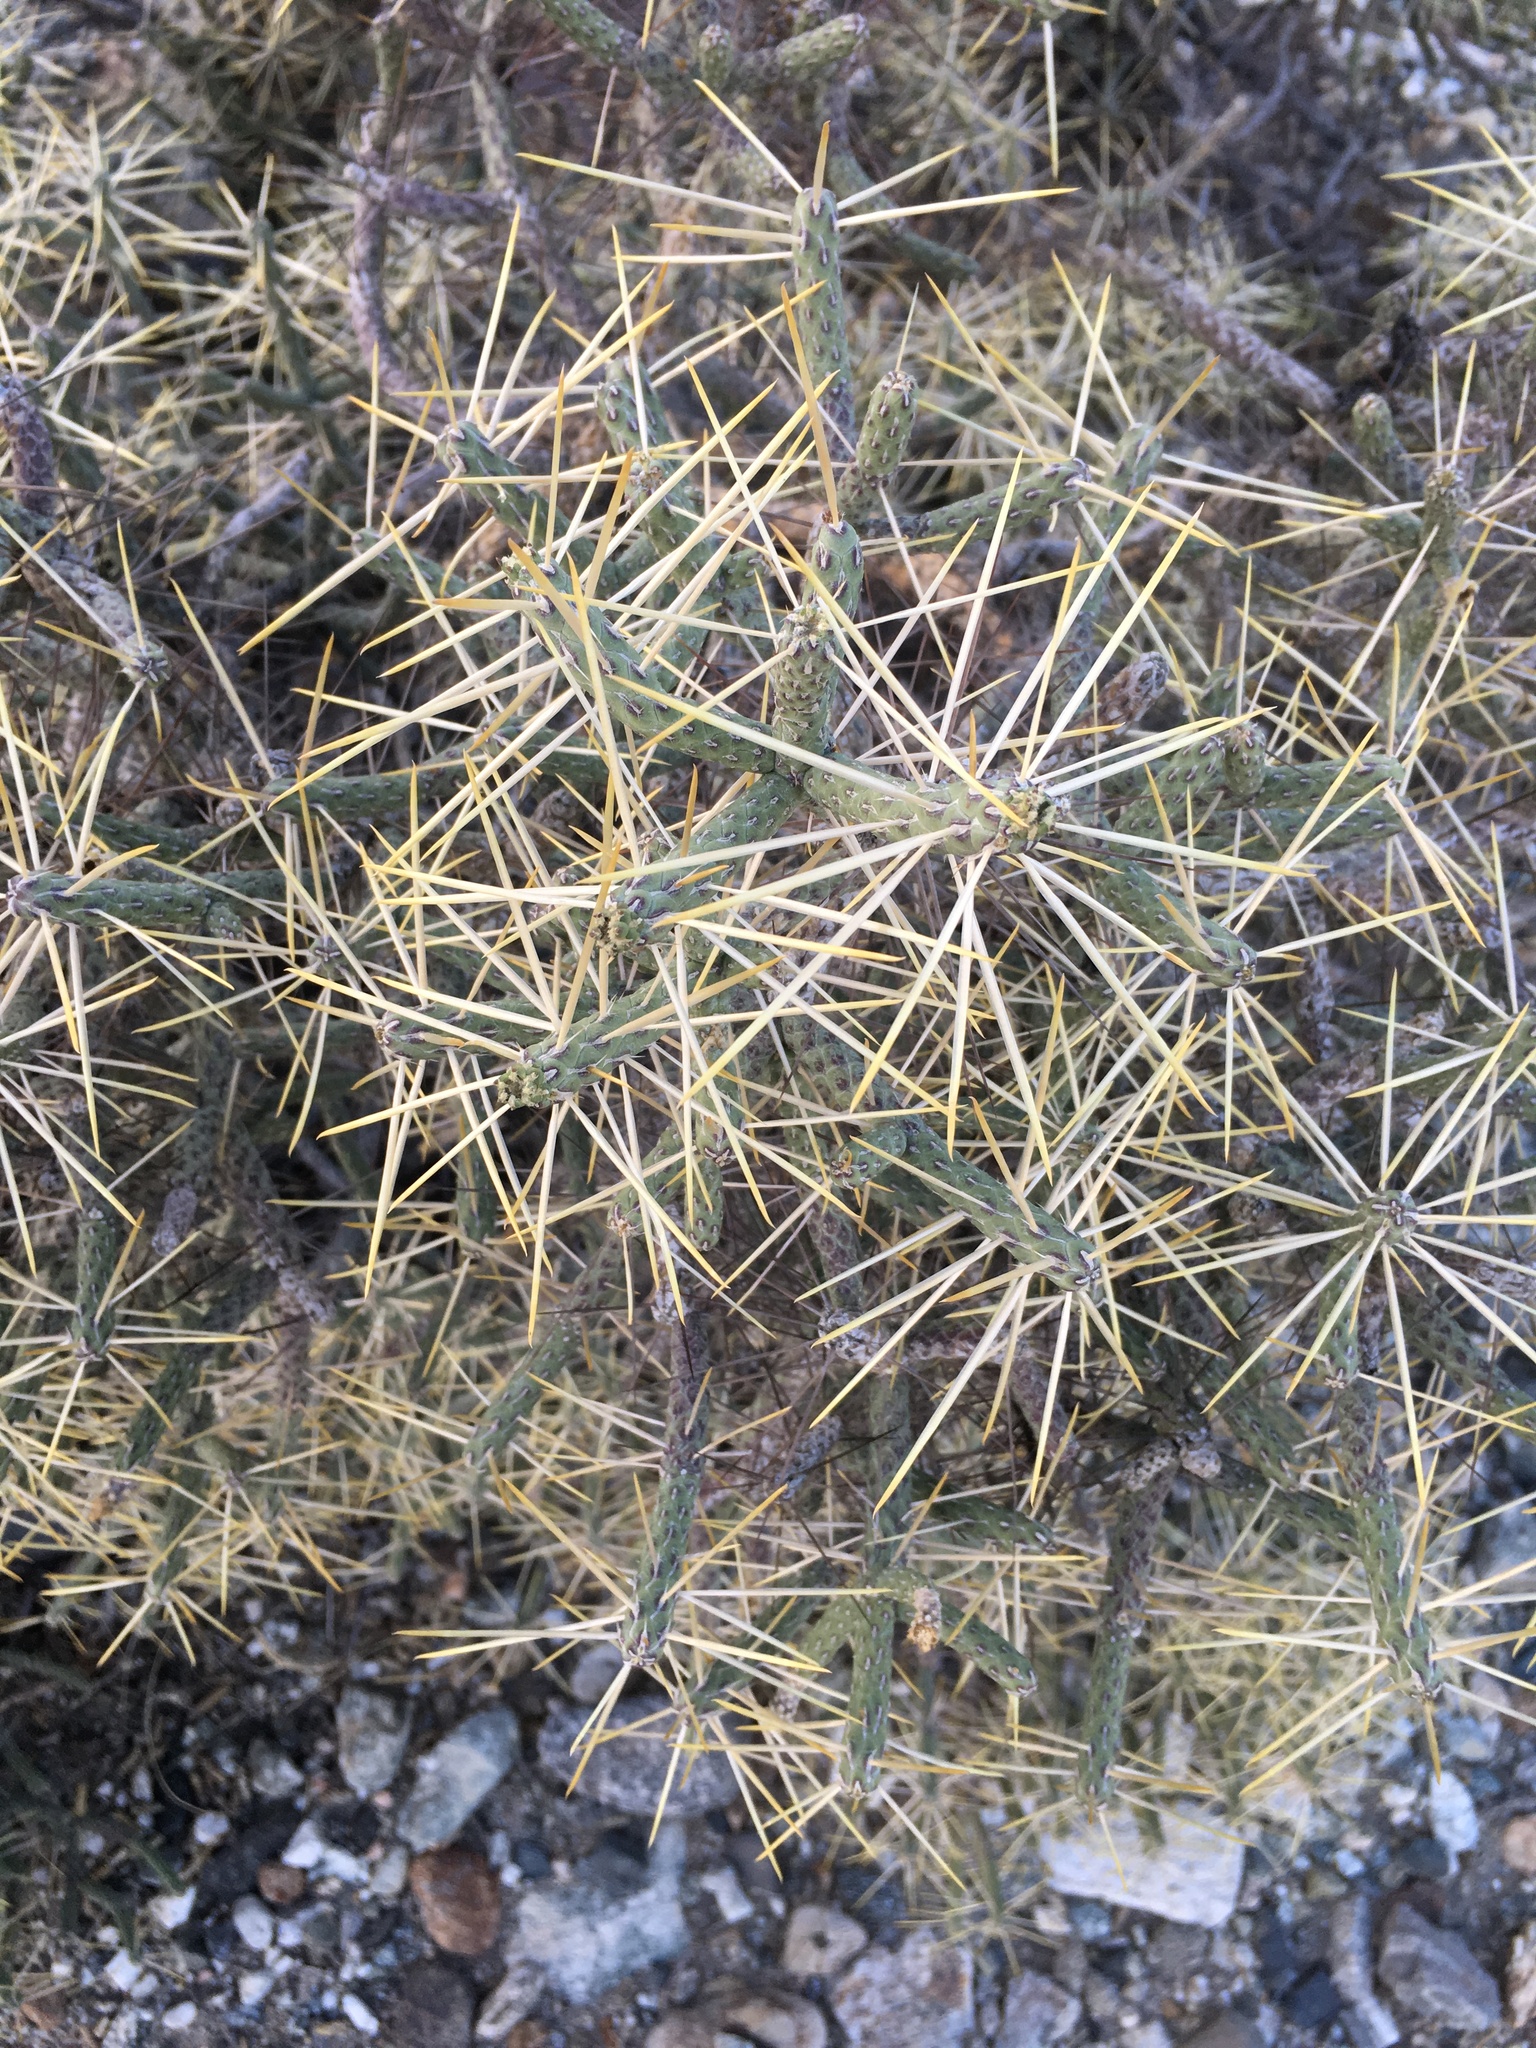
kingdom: Plantae
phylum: Tracheophyta
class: Magnoliopsida
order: Caryophyllales
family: Cactaceae
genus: Cylindropuntia
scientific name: Cylindropuntia ramosissima
